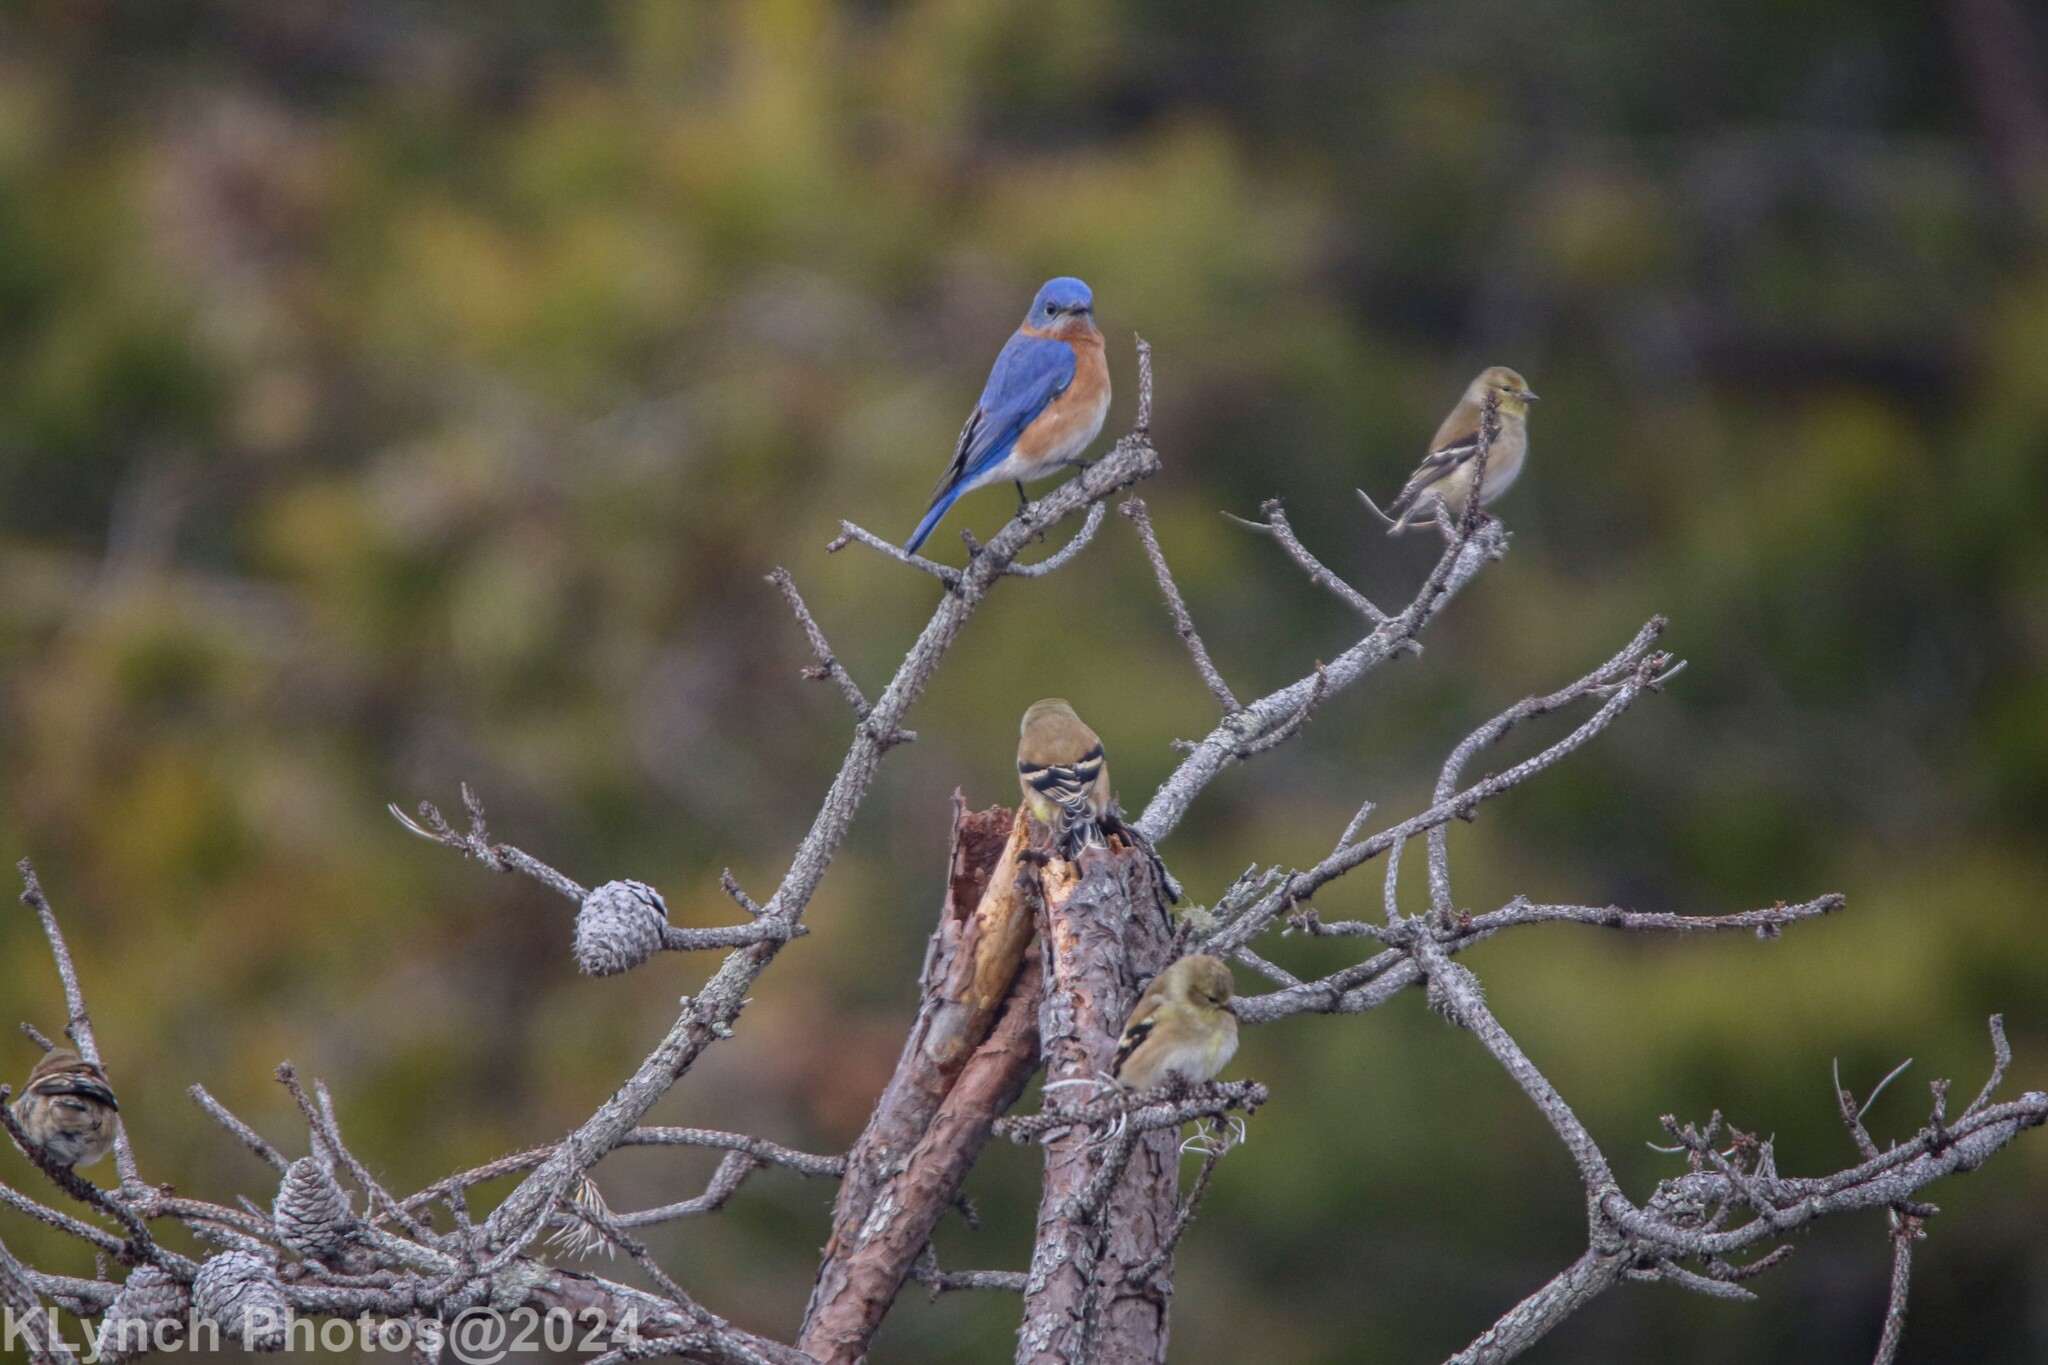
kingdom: Animalia
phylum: Chordata
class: Aves
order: Passeriformes
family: Turdidae
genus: Sialia
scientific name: Sialia sialis
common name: Eastern bluebird
